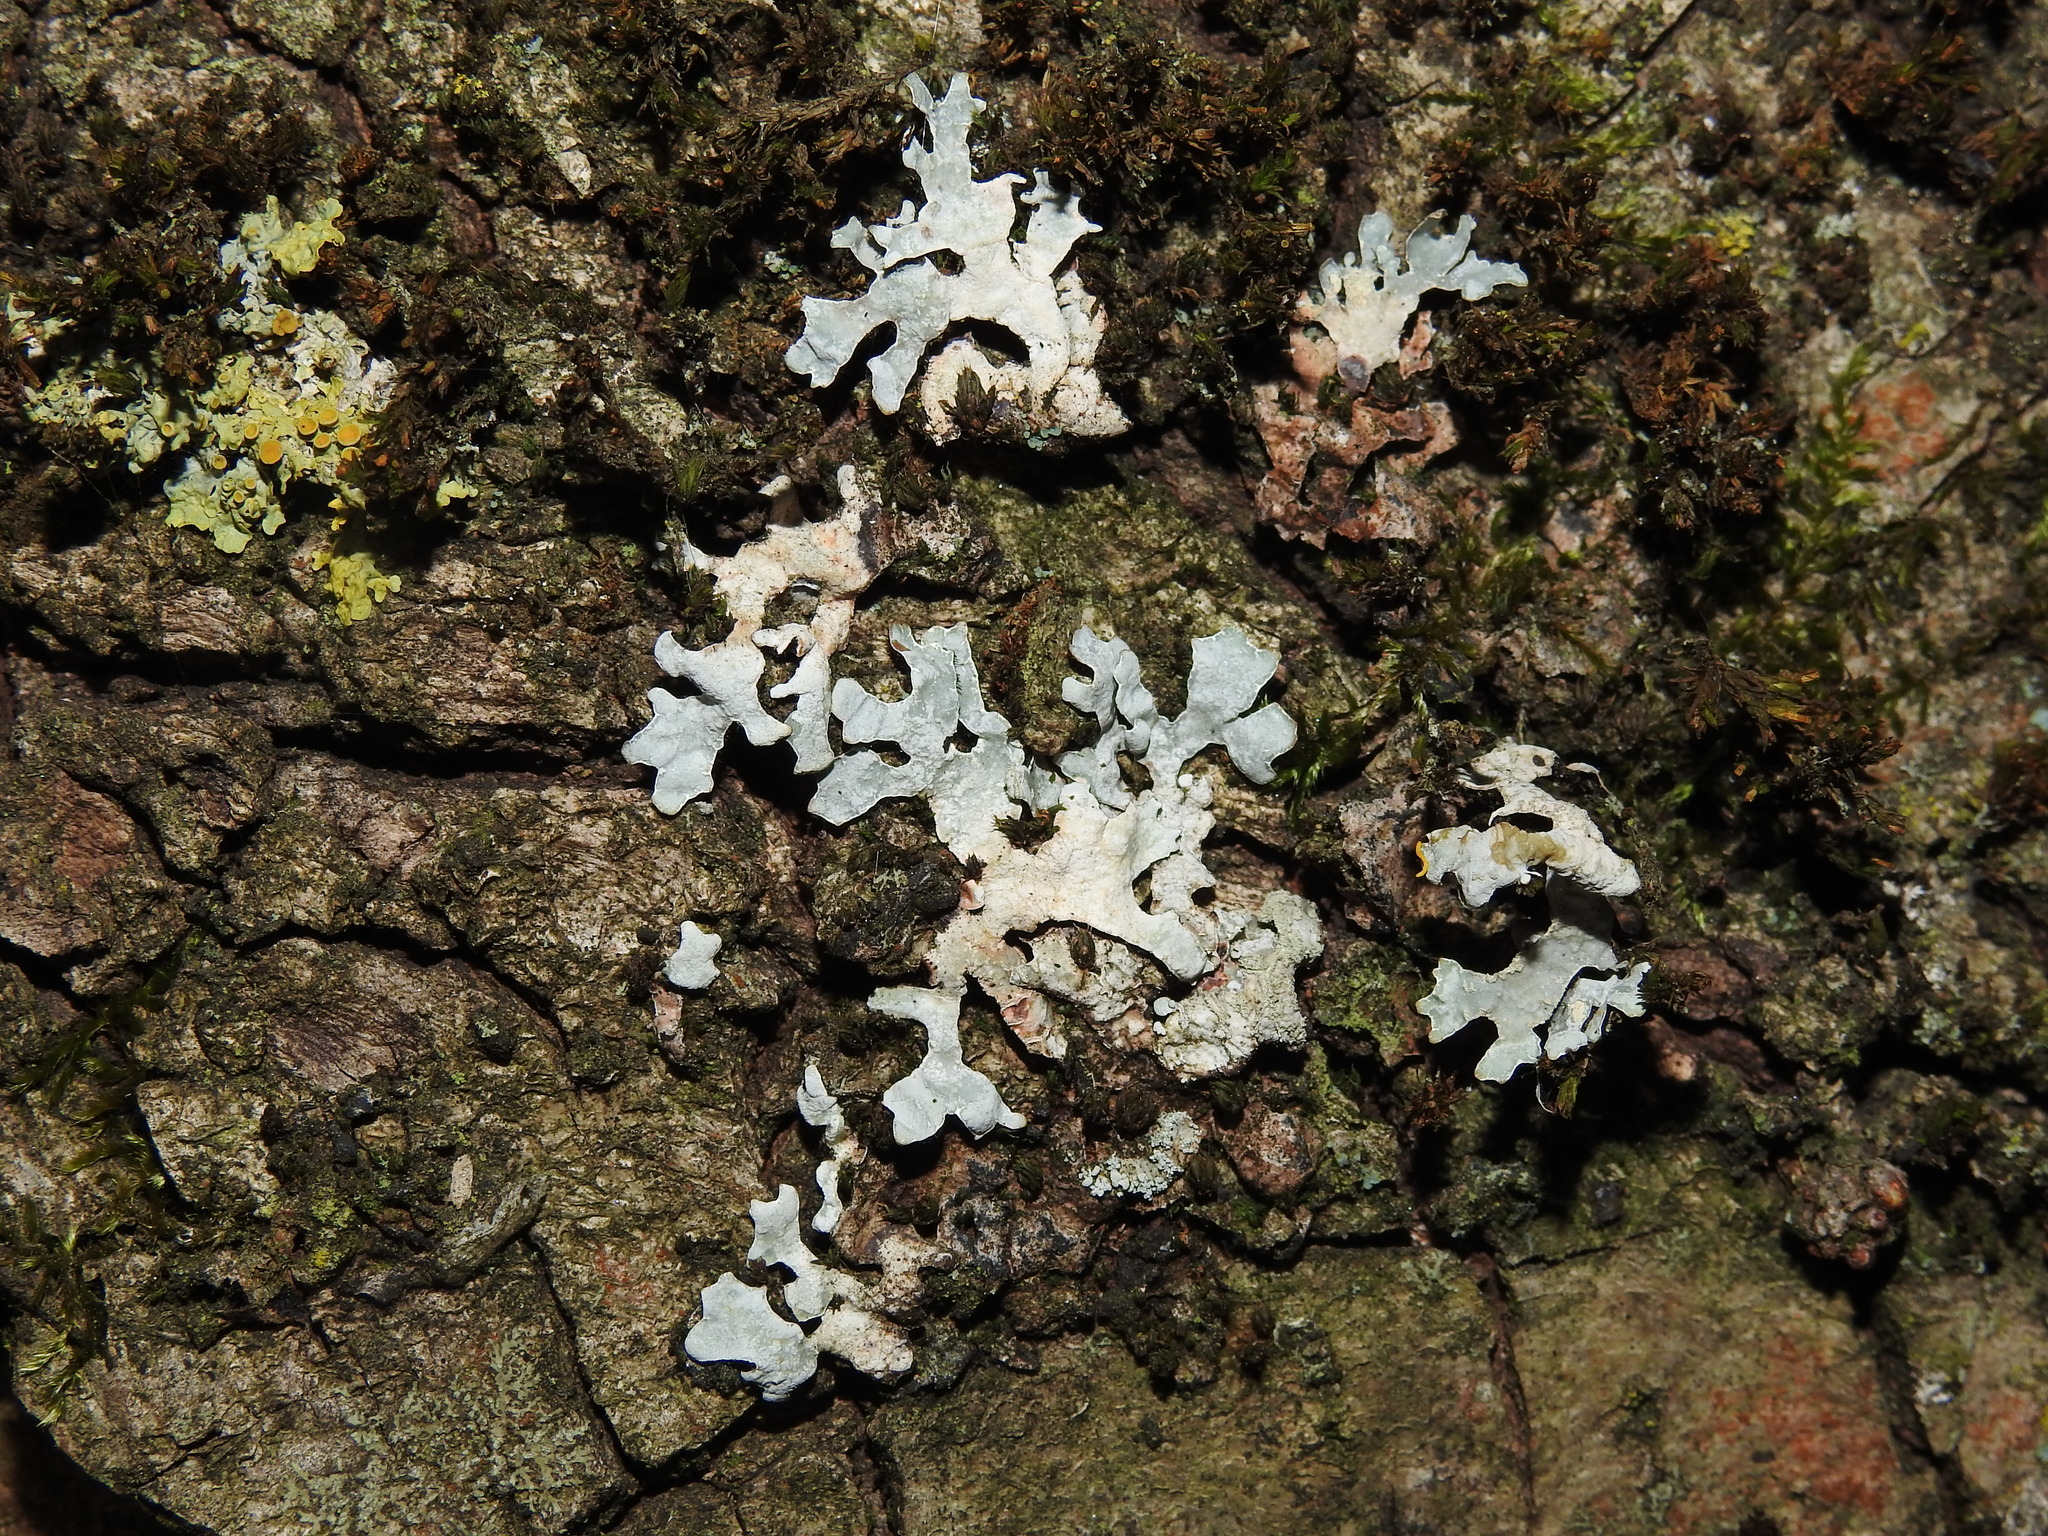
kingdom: Fungi
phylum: Ascomycota
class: Lecanoromycetes
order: Lecanorales
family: Parmeliaceae
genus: Parmelia
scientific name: Parmelia sulcata
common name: Netted shield lichen
